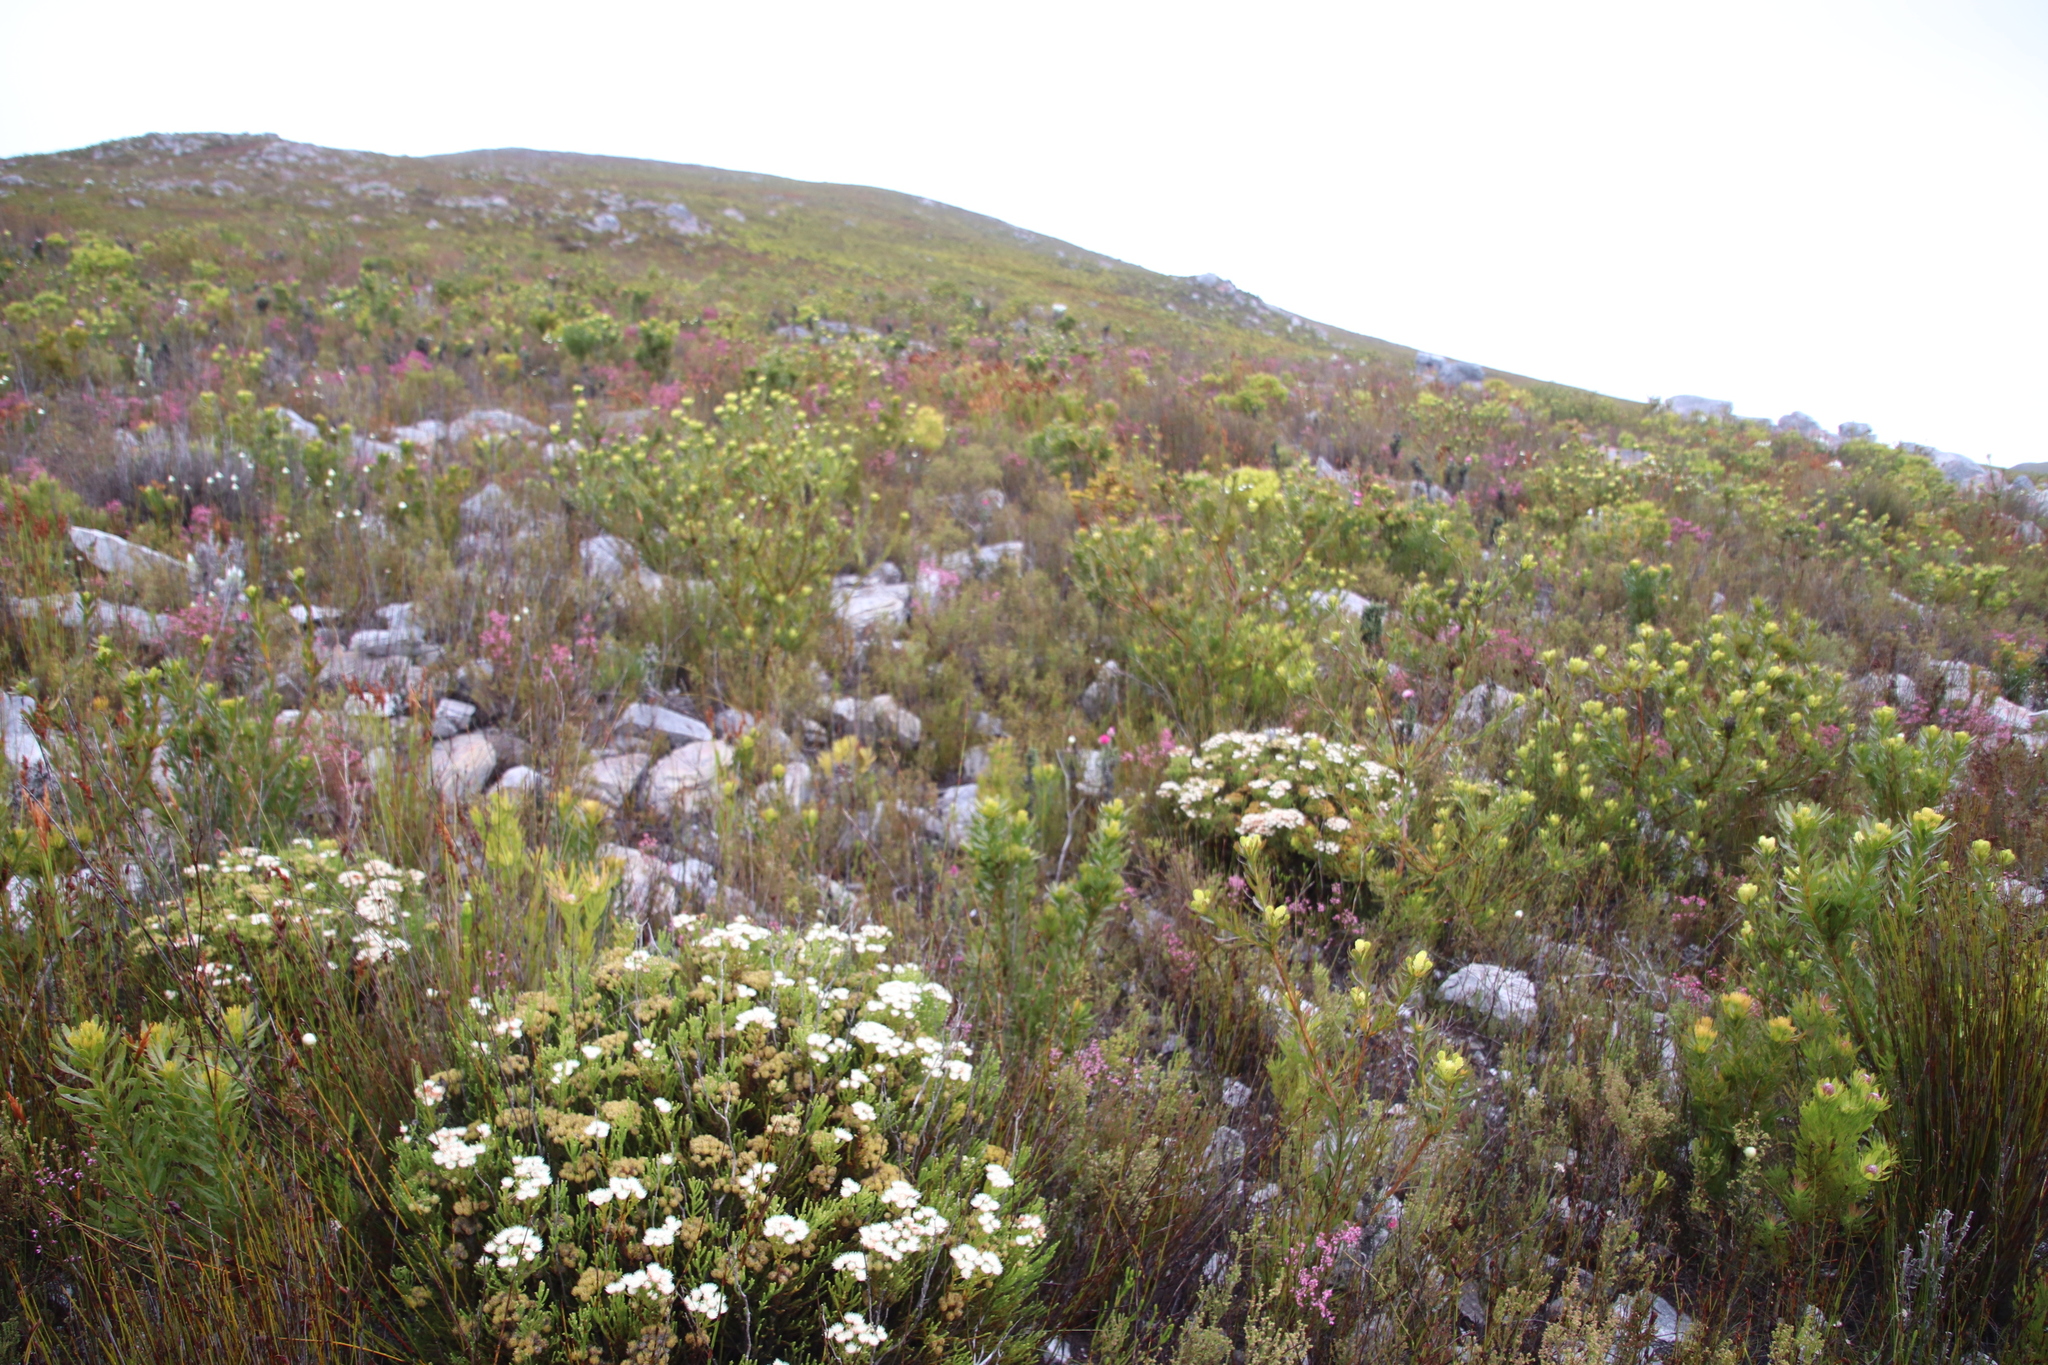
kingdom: Plantae
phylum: Tracheophyta
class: Magnoliopsida
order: Bruniales
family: Bruniaceae
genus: Brunia
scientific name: Brunia paleacea
